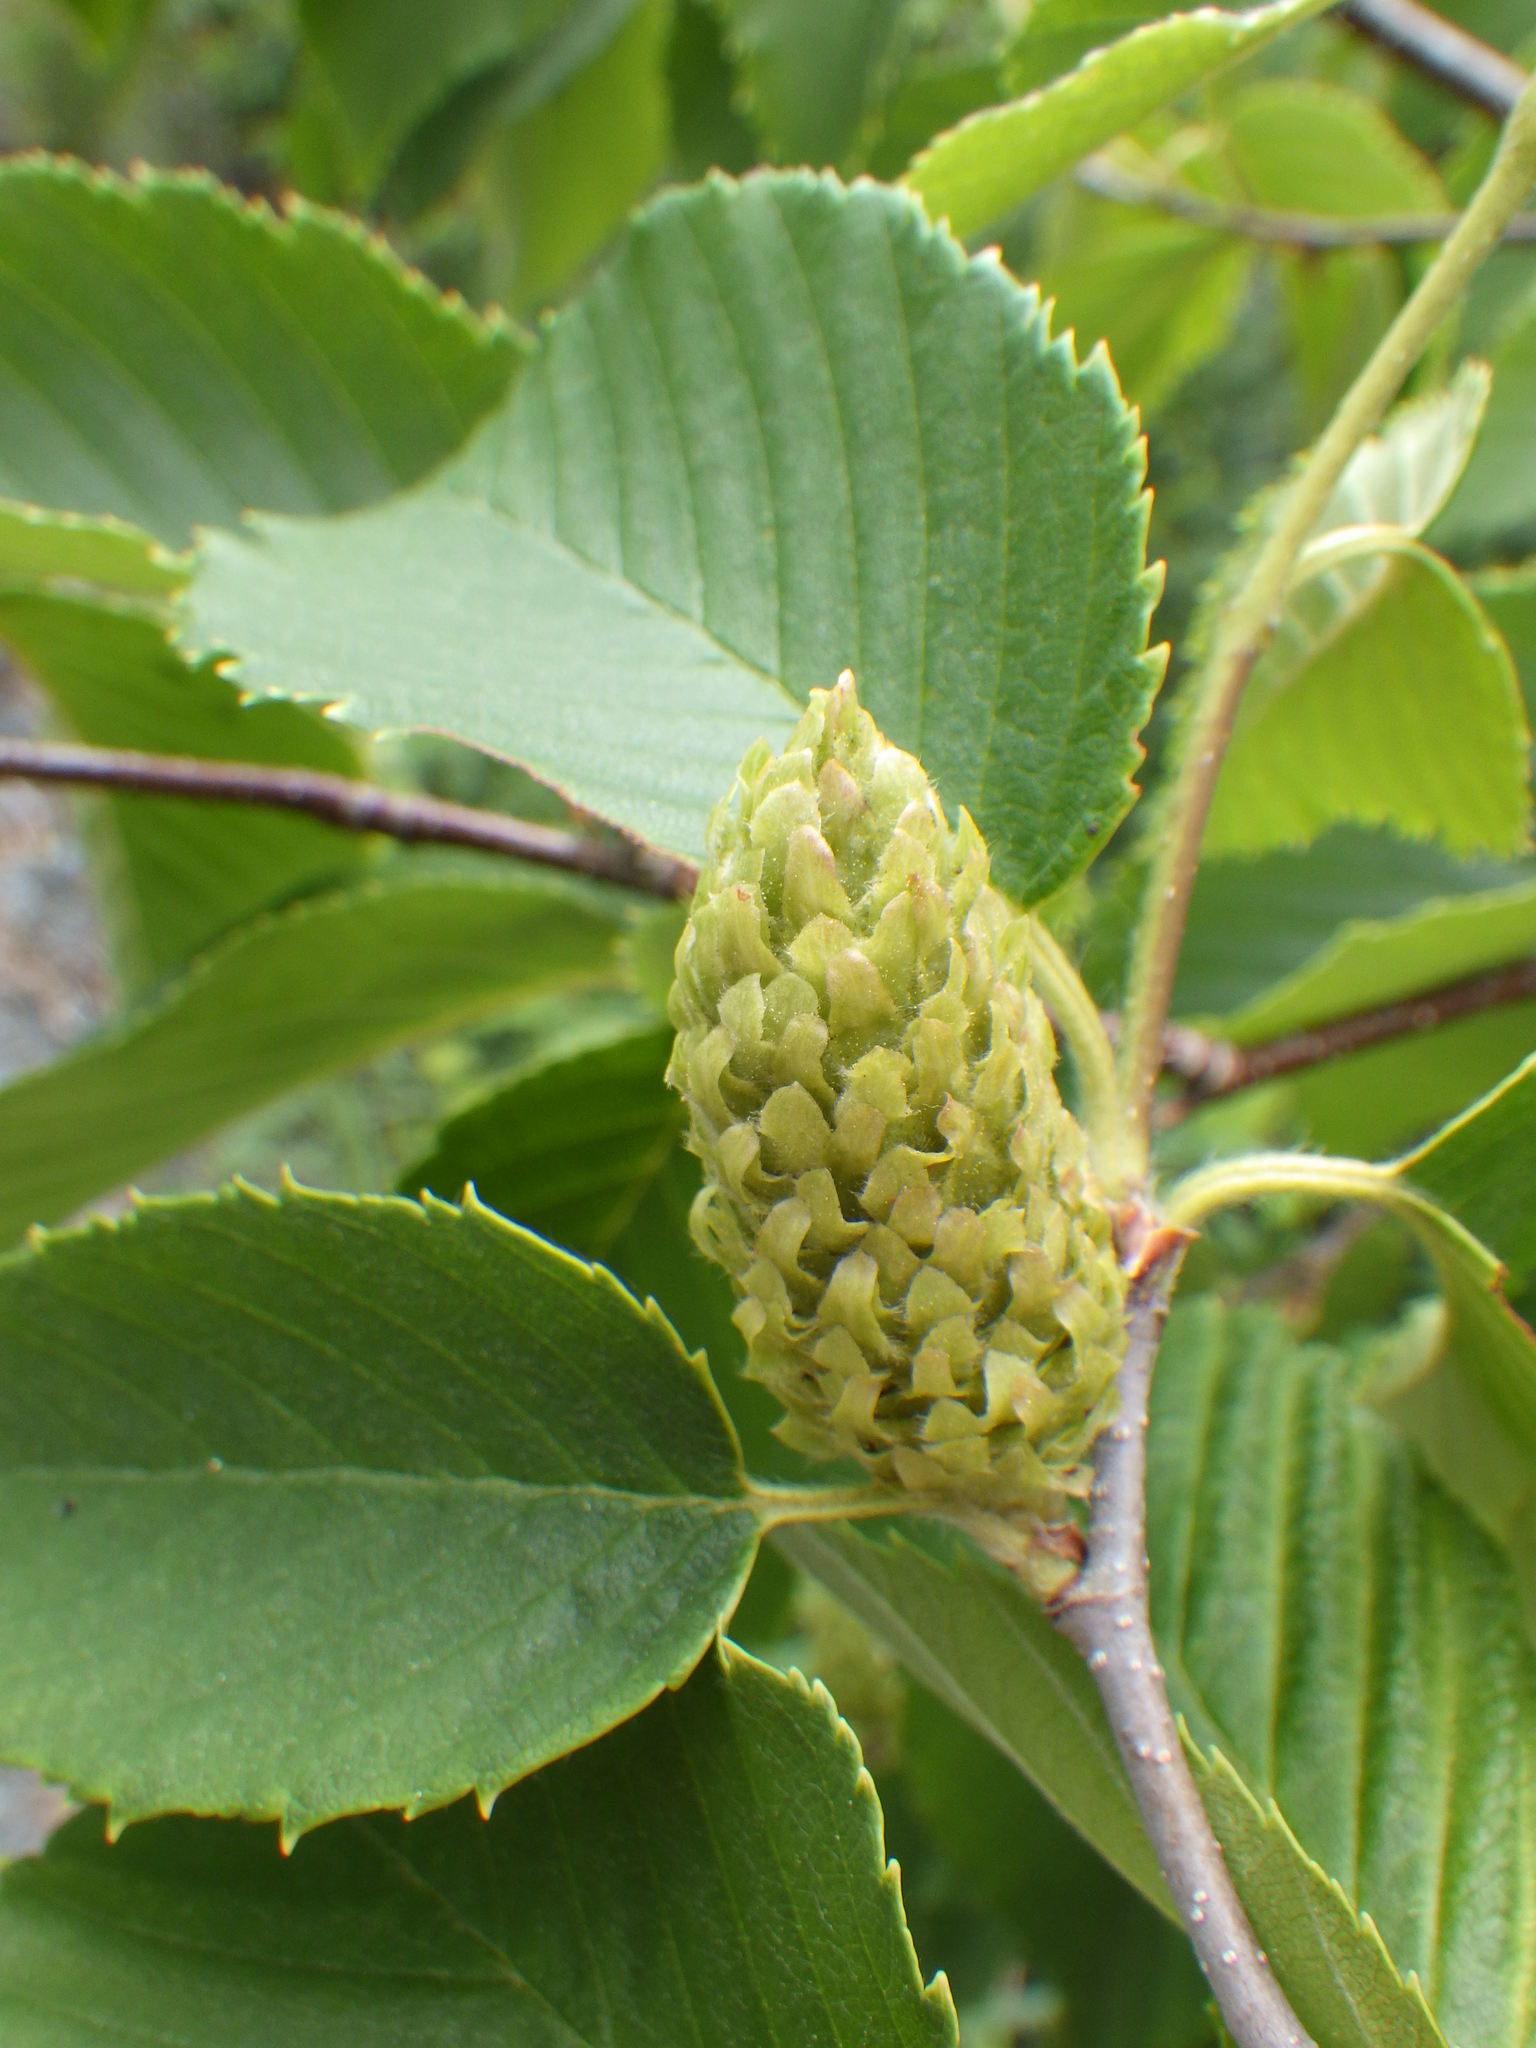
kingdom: Plantae
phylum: Tracheophyta
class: Magnoliopsida
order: Fagales
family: Betulaceae
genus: Betula
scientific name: Betula alleghaniensis
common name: Yellow birch
